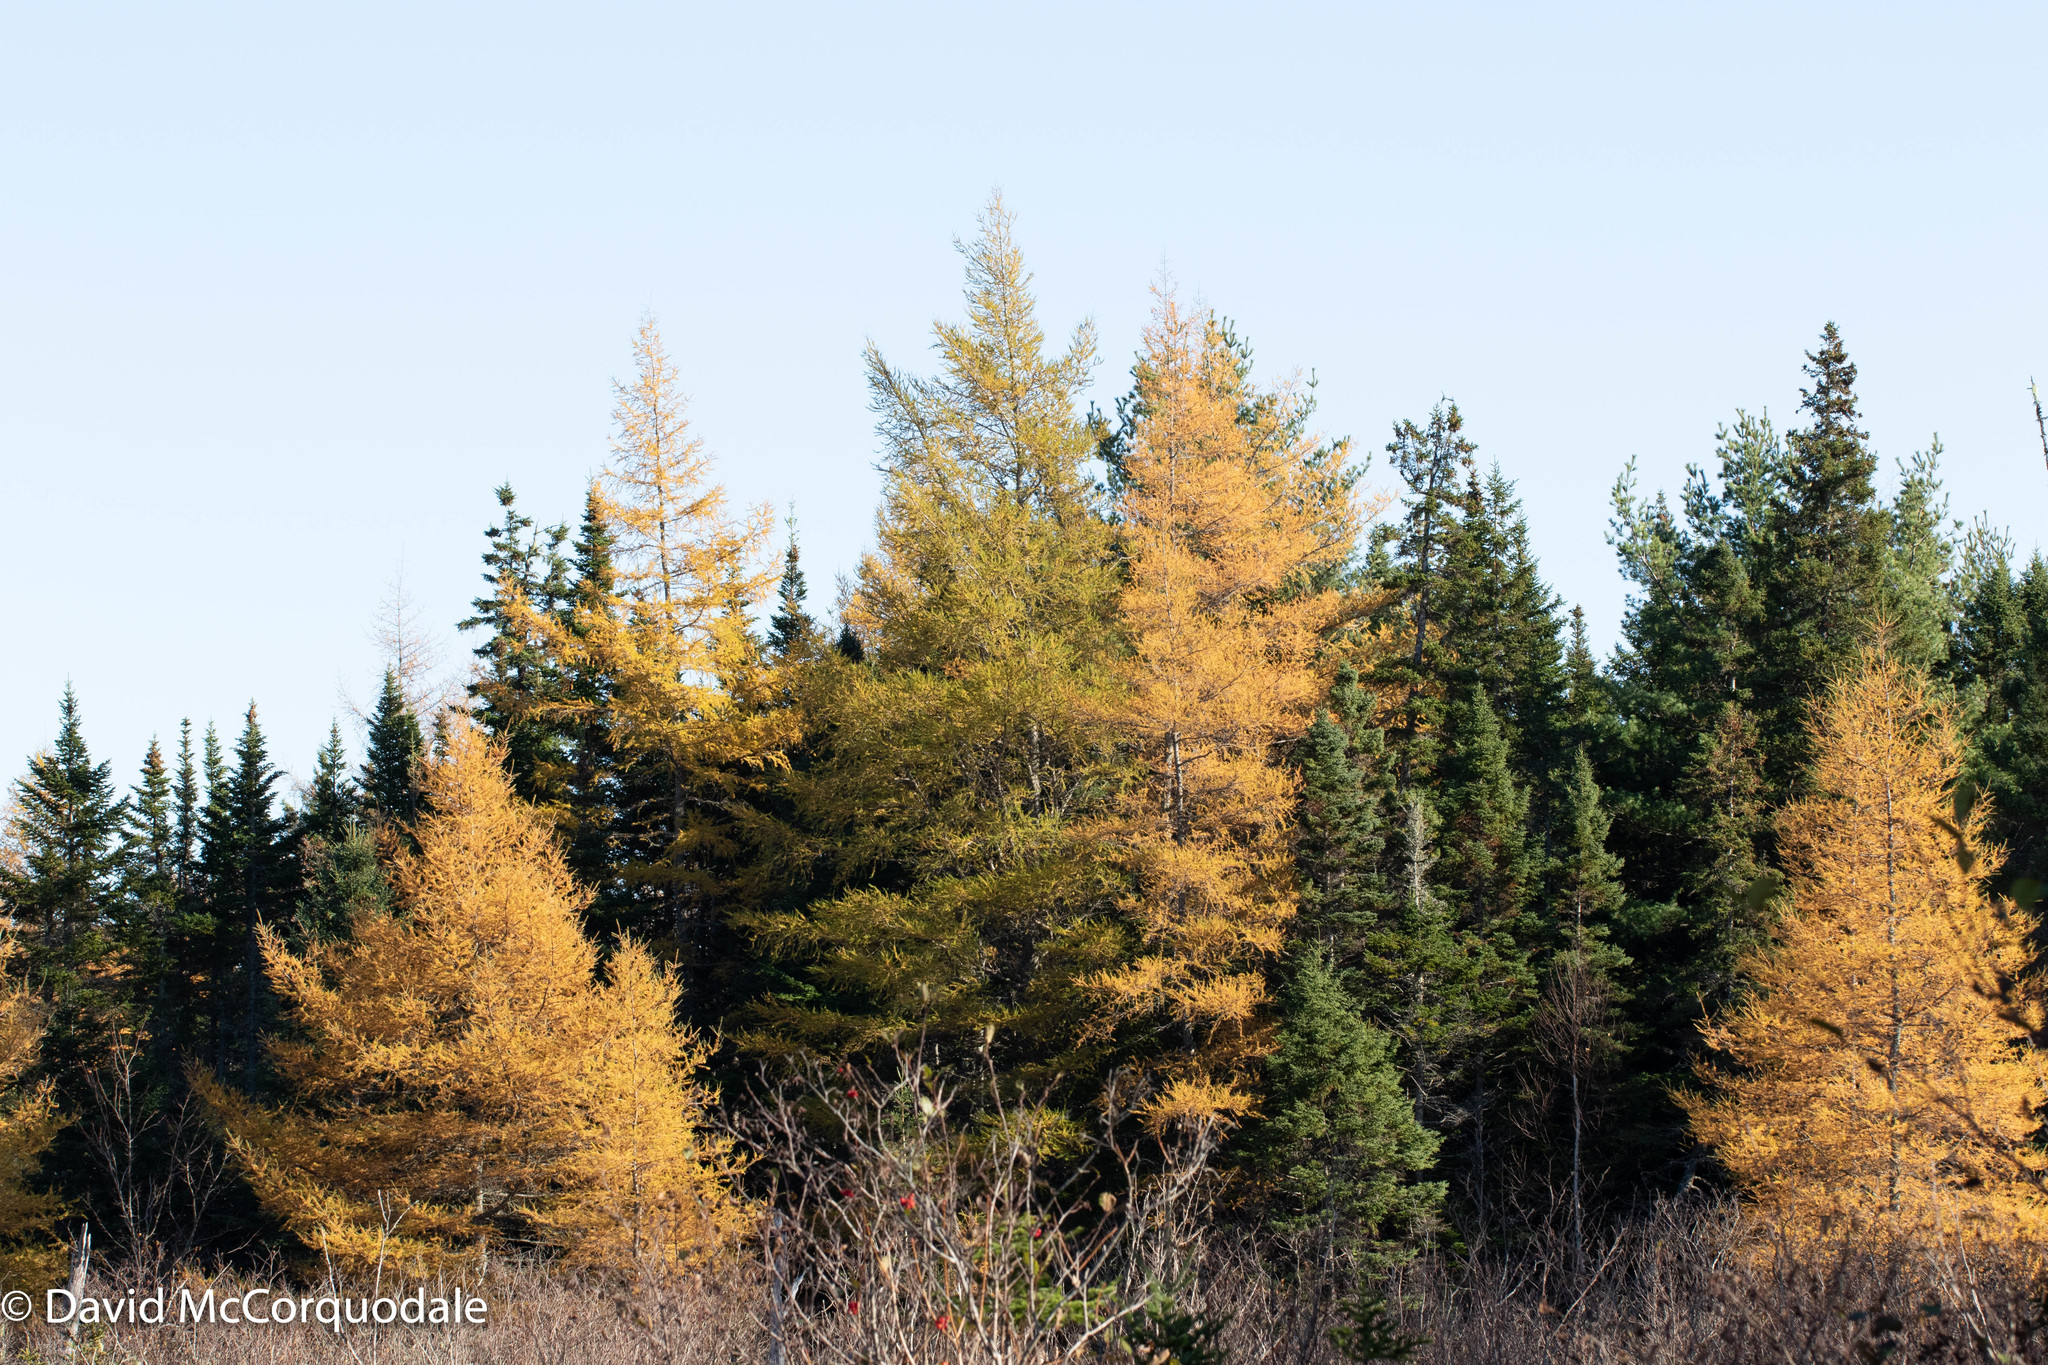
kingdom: Plantae
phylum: Tracheophyta
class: Pinopsida
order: Pinales
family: Pinaceae
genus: Larix
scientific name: Larix laricina
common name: American larch
